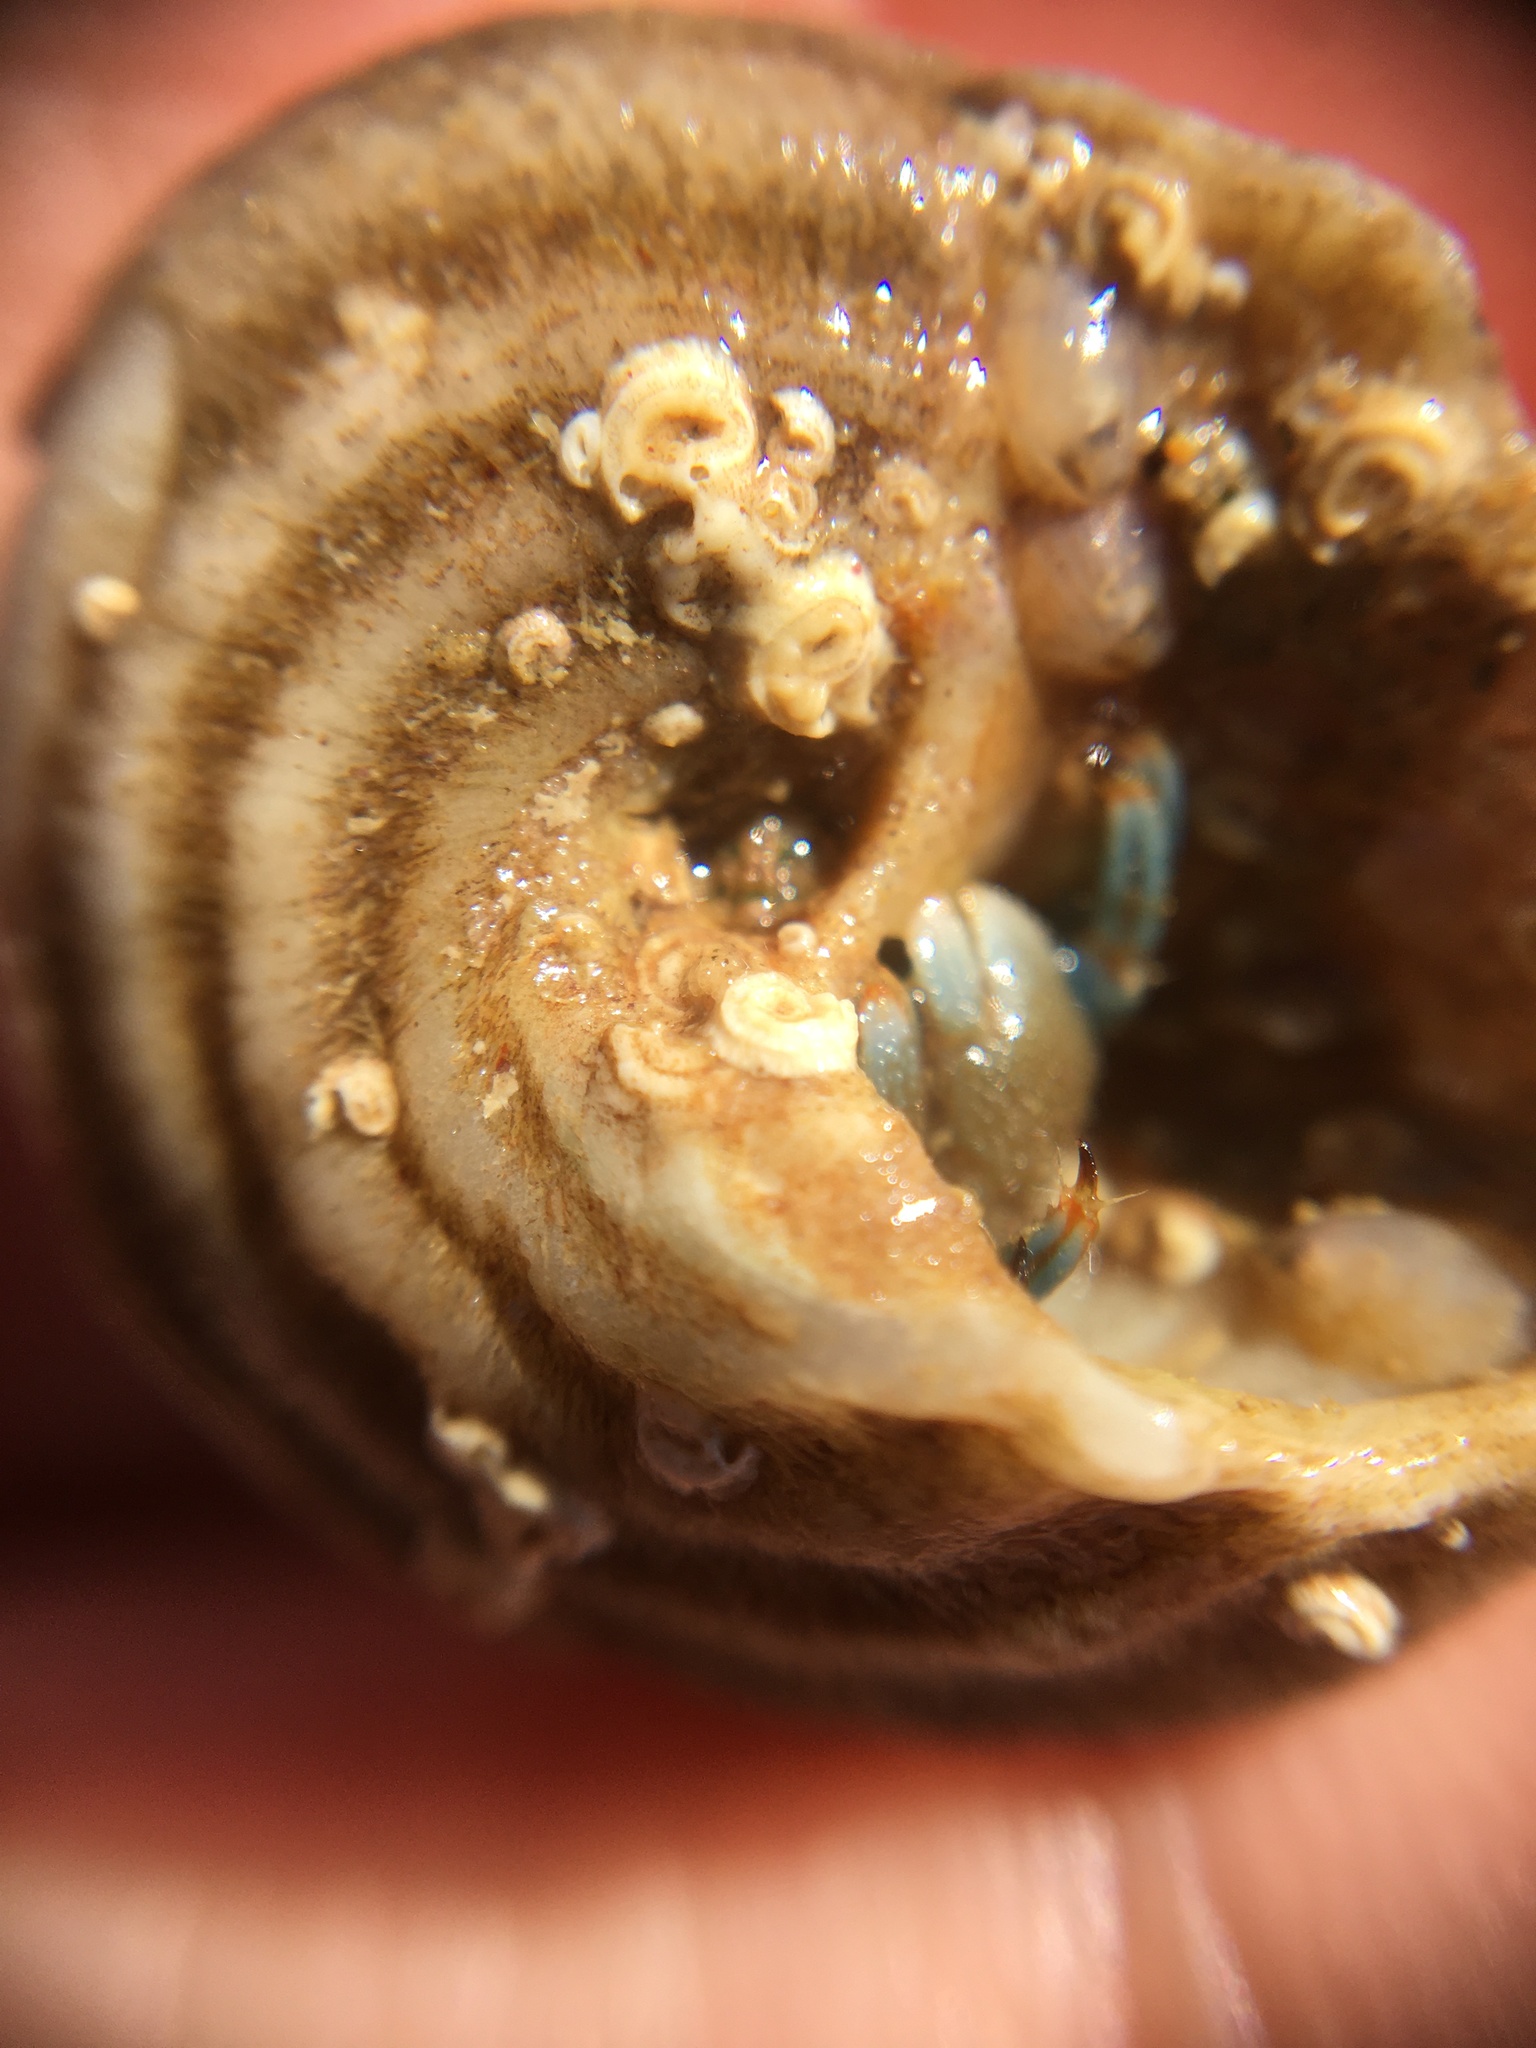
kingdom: Animalia
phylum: Mollusca
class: Gastropoda
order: Trochida
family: Tegulidae
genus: Tegula
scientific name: Tegula aureotincta
